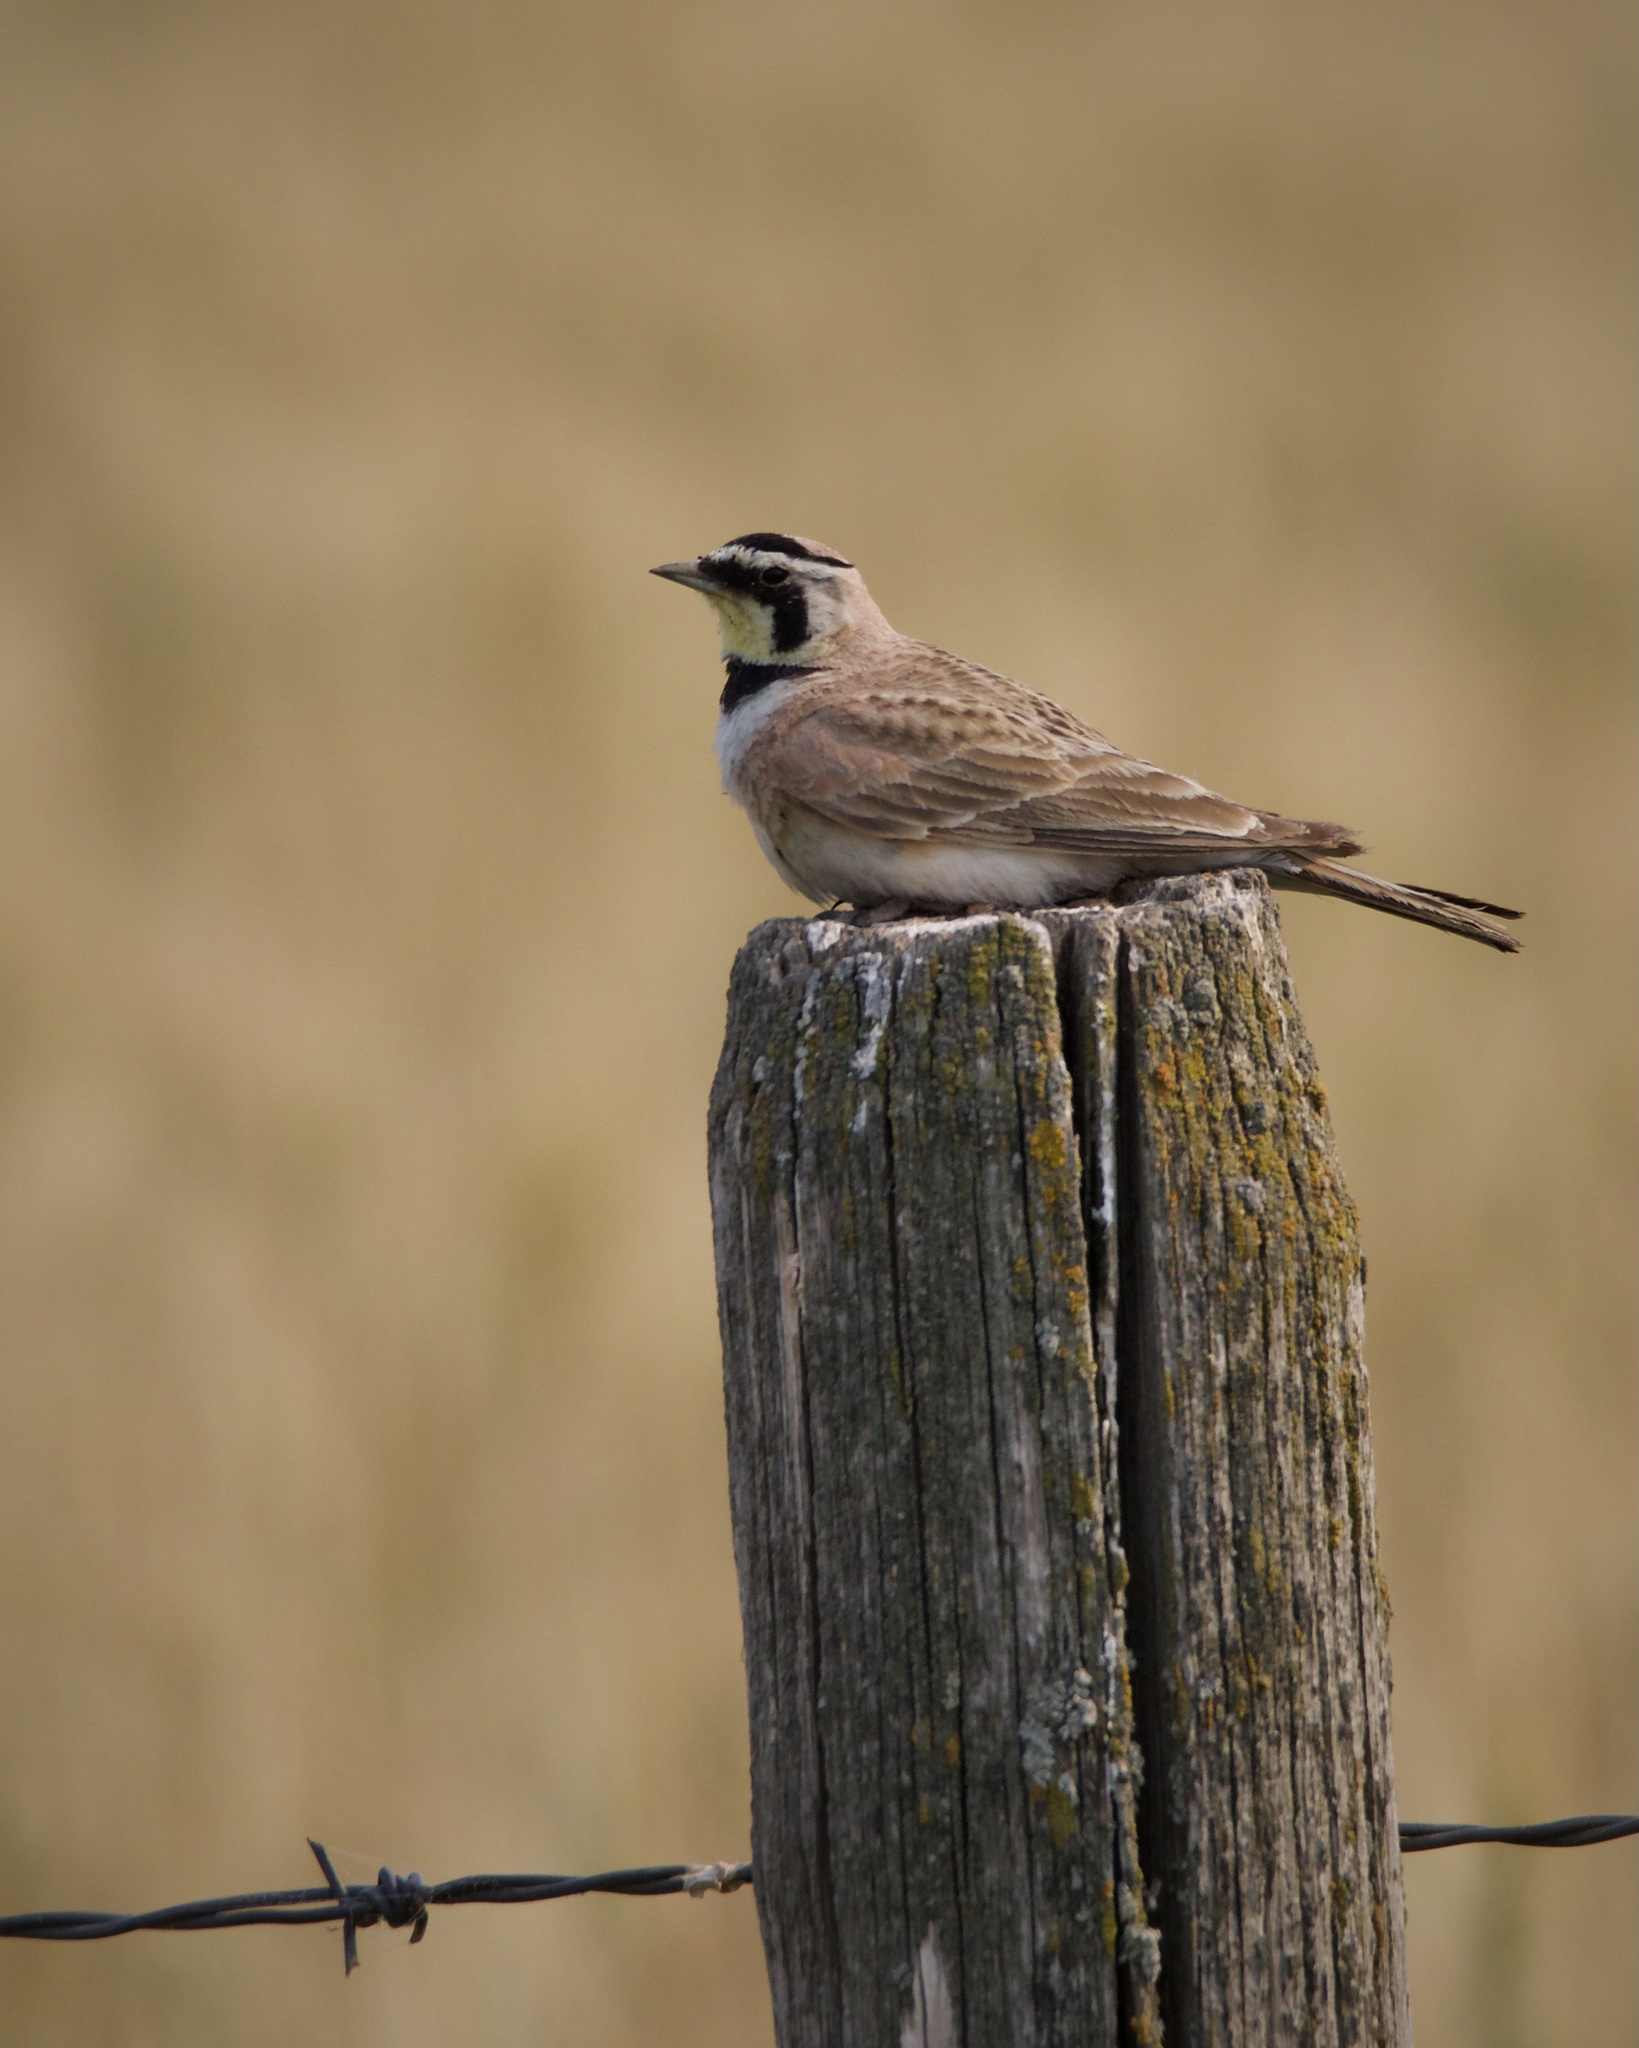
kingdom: Animalia
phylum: Chordata
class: Aves
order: Passeriformes
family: Alaudidae
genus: Eremophila
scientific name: Eremophila alpestris
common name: Horned lark
